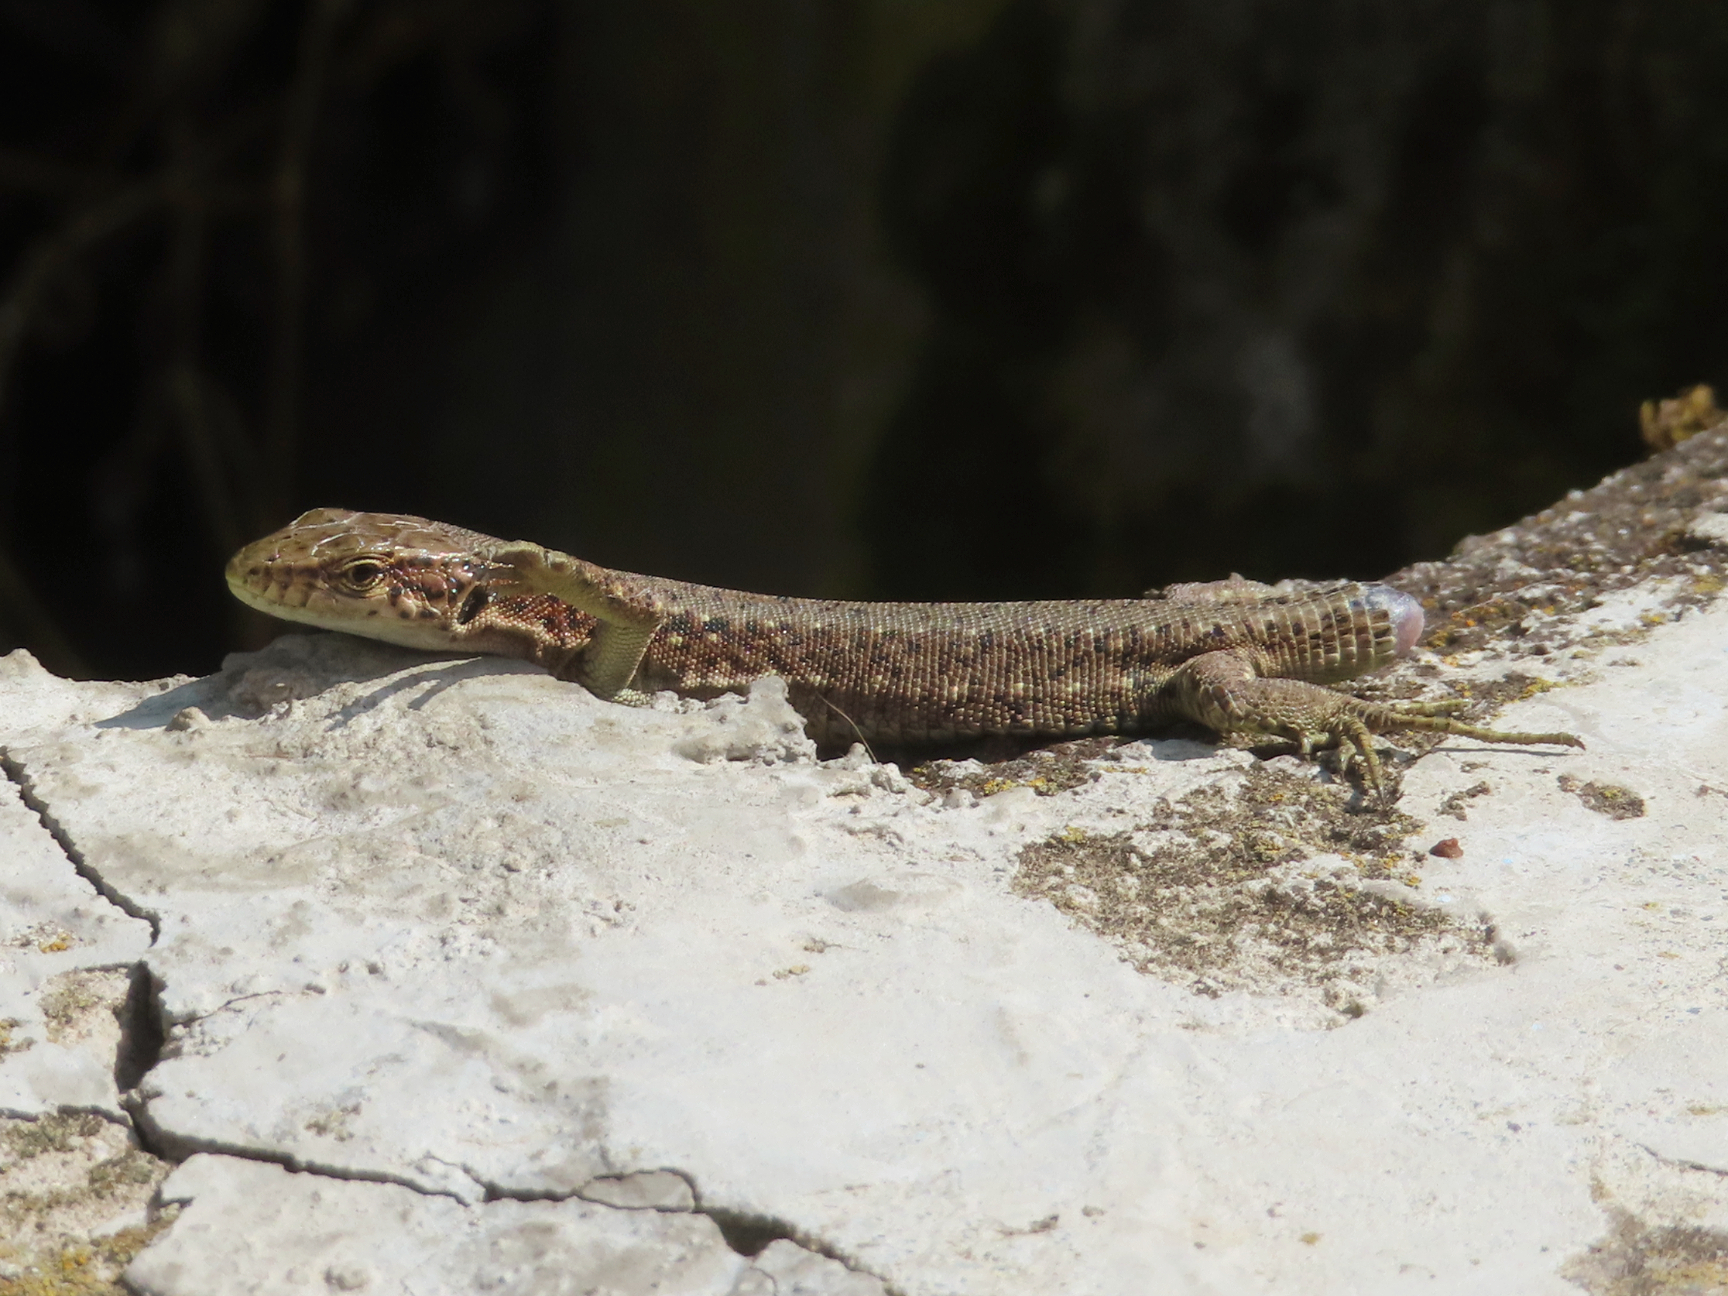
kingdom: Animalia
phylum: Chordata
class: Squamata
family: Lacertidae
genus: Darevskia
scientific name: Darevskia armeniaca
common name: Armenian lizard
